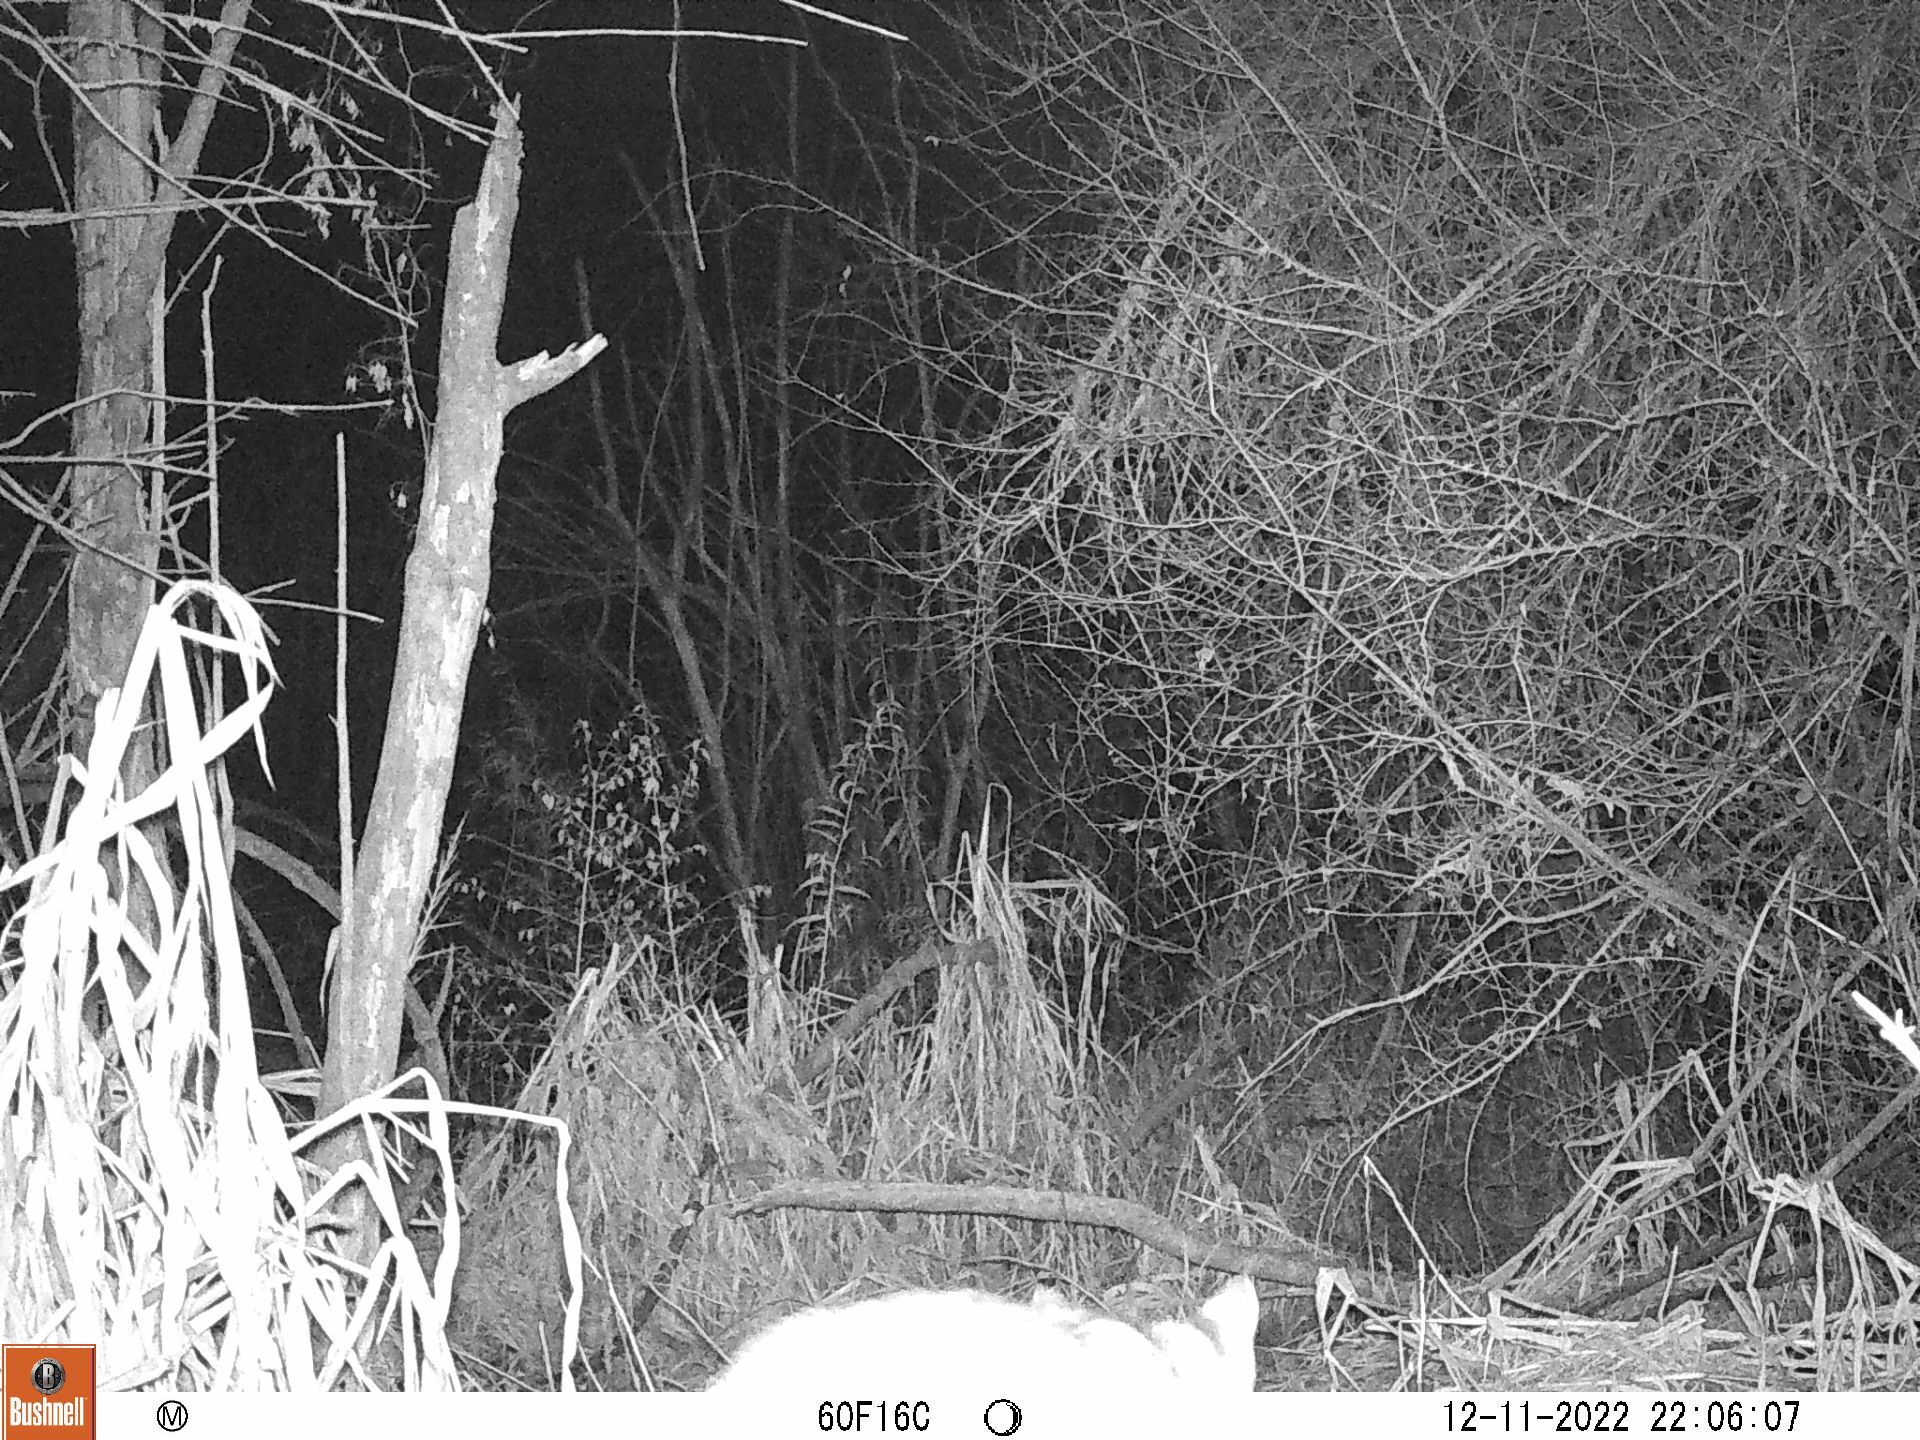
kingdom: Animalia
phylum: Chordata
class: Mammalia
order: Carnivora
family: Felidae
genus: Lynx
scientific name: Lynx rufus
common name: Bobcat
